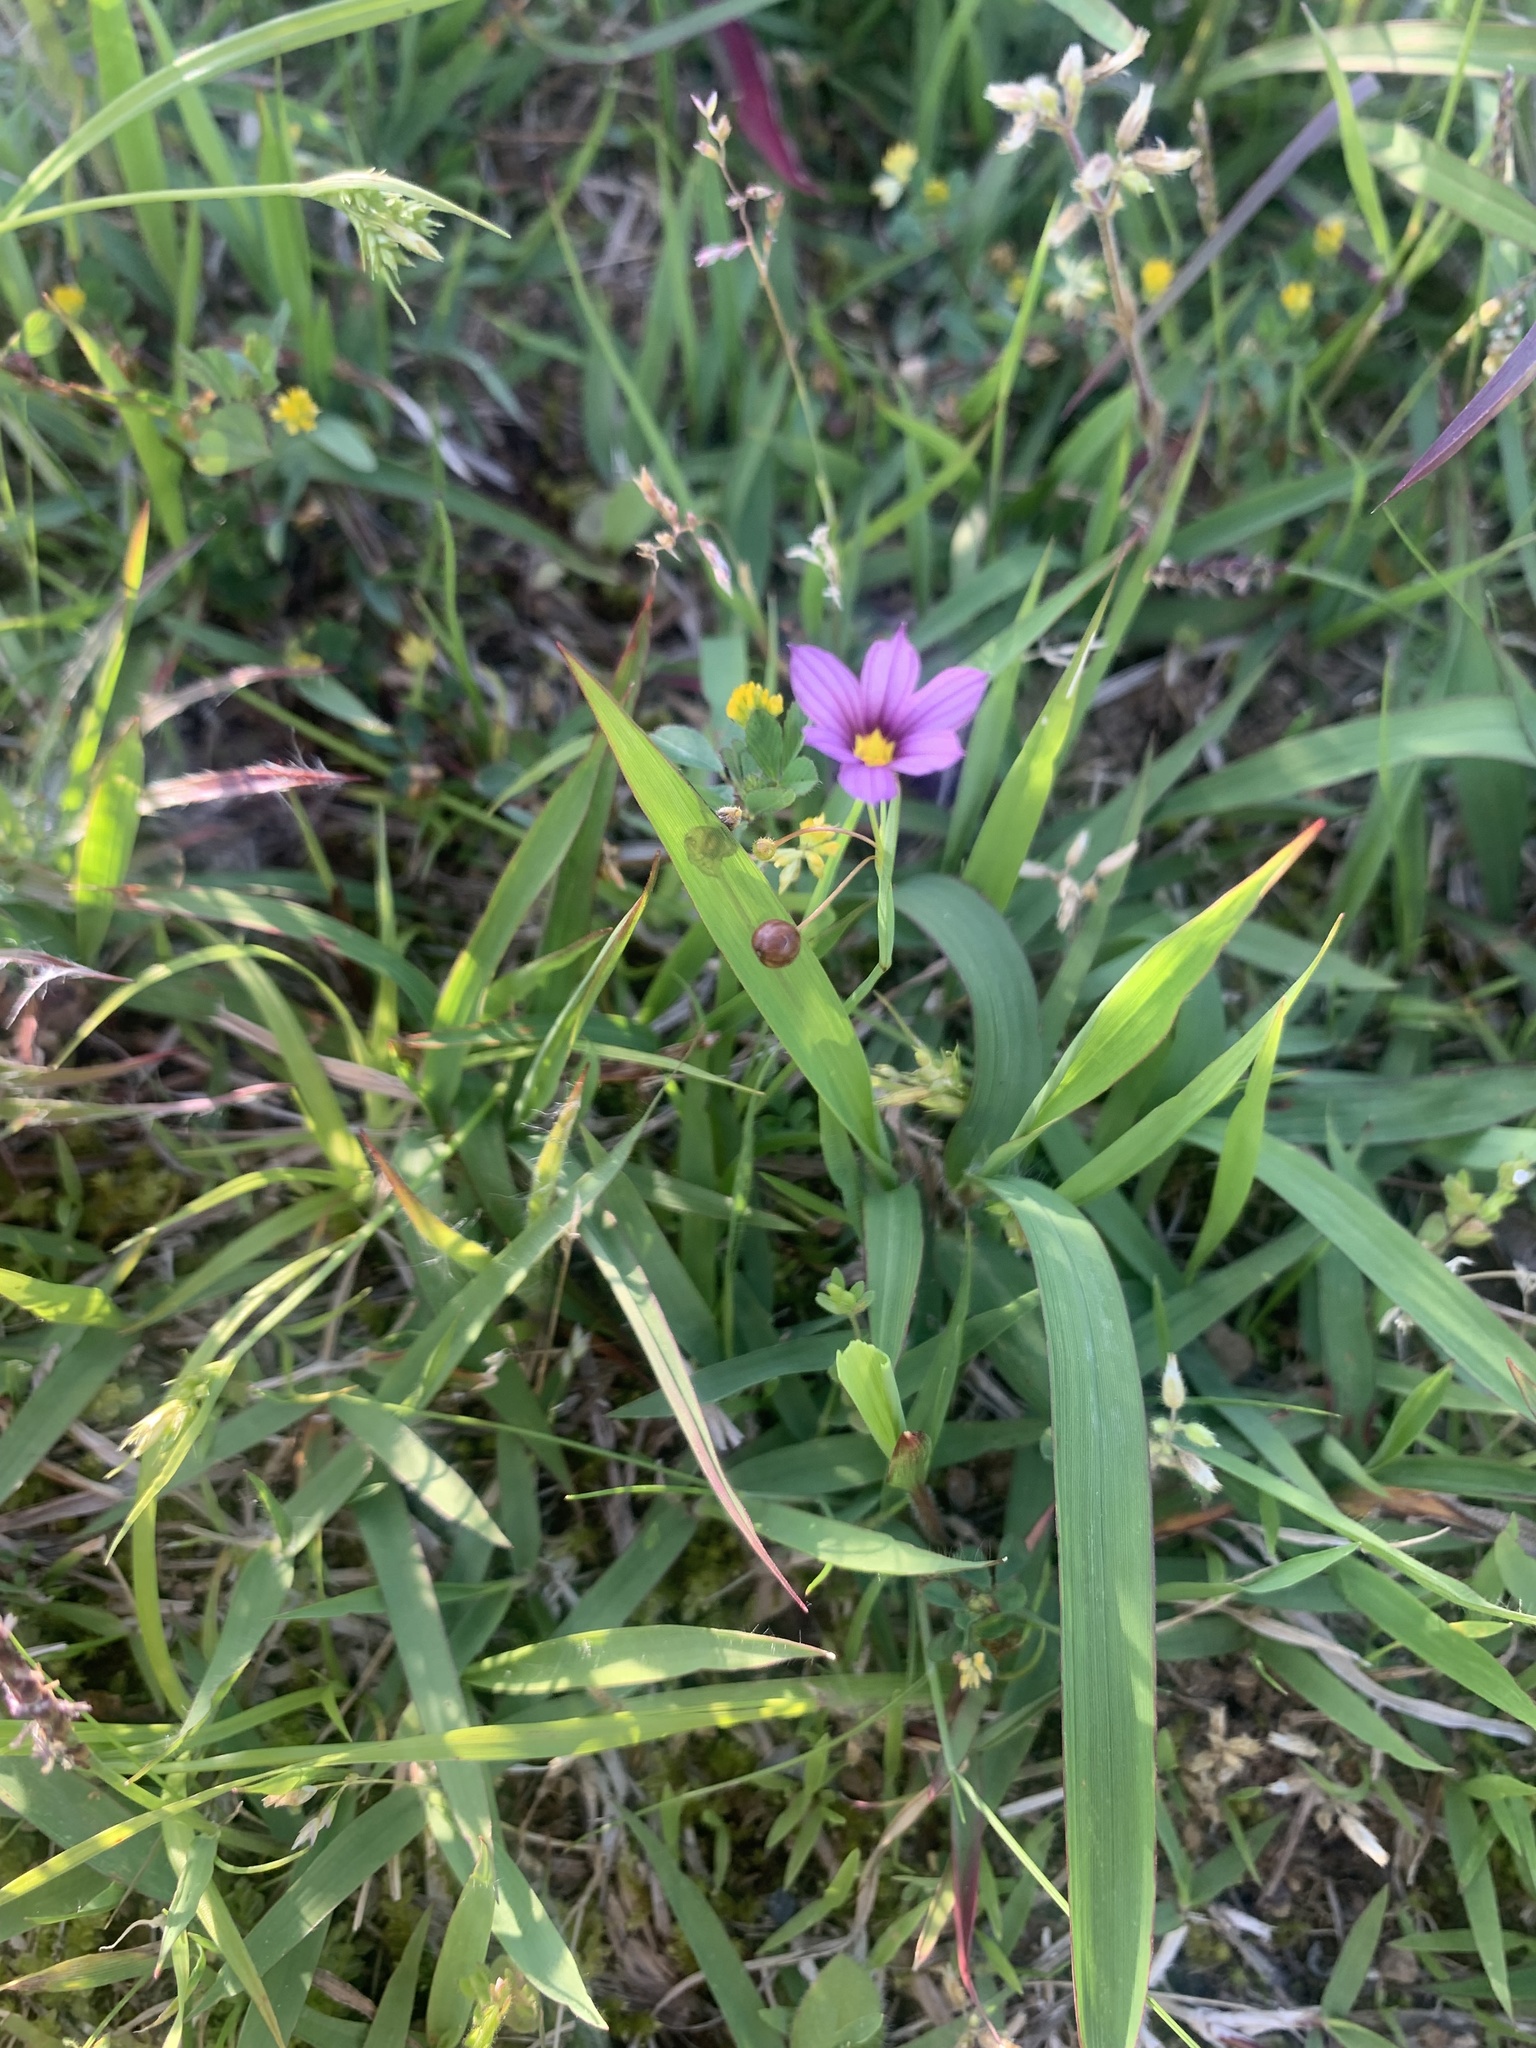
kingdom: Plantae
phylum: Tracheophyta
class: Liliopsida
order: Asparagales
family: Iridaceae
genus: Sisyrinchium
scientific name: Sisyrinchium micranthum
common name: Bermuda pigroot
